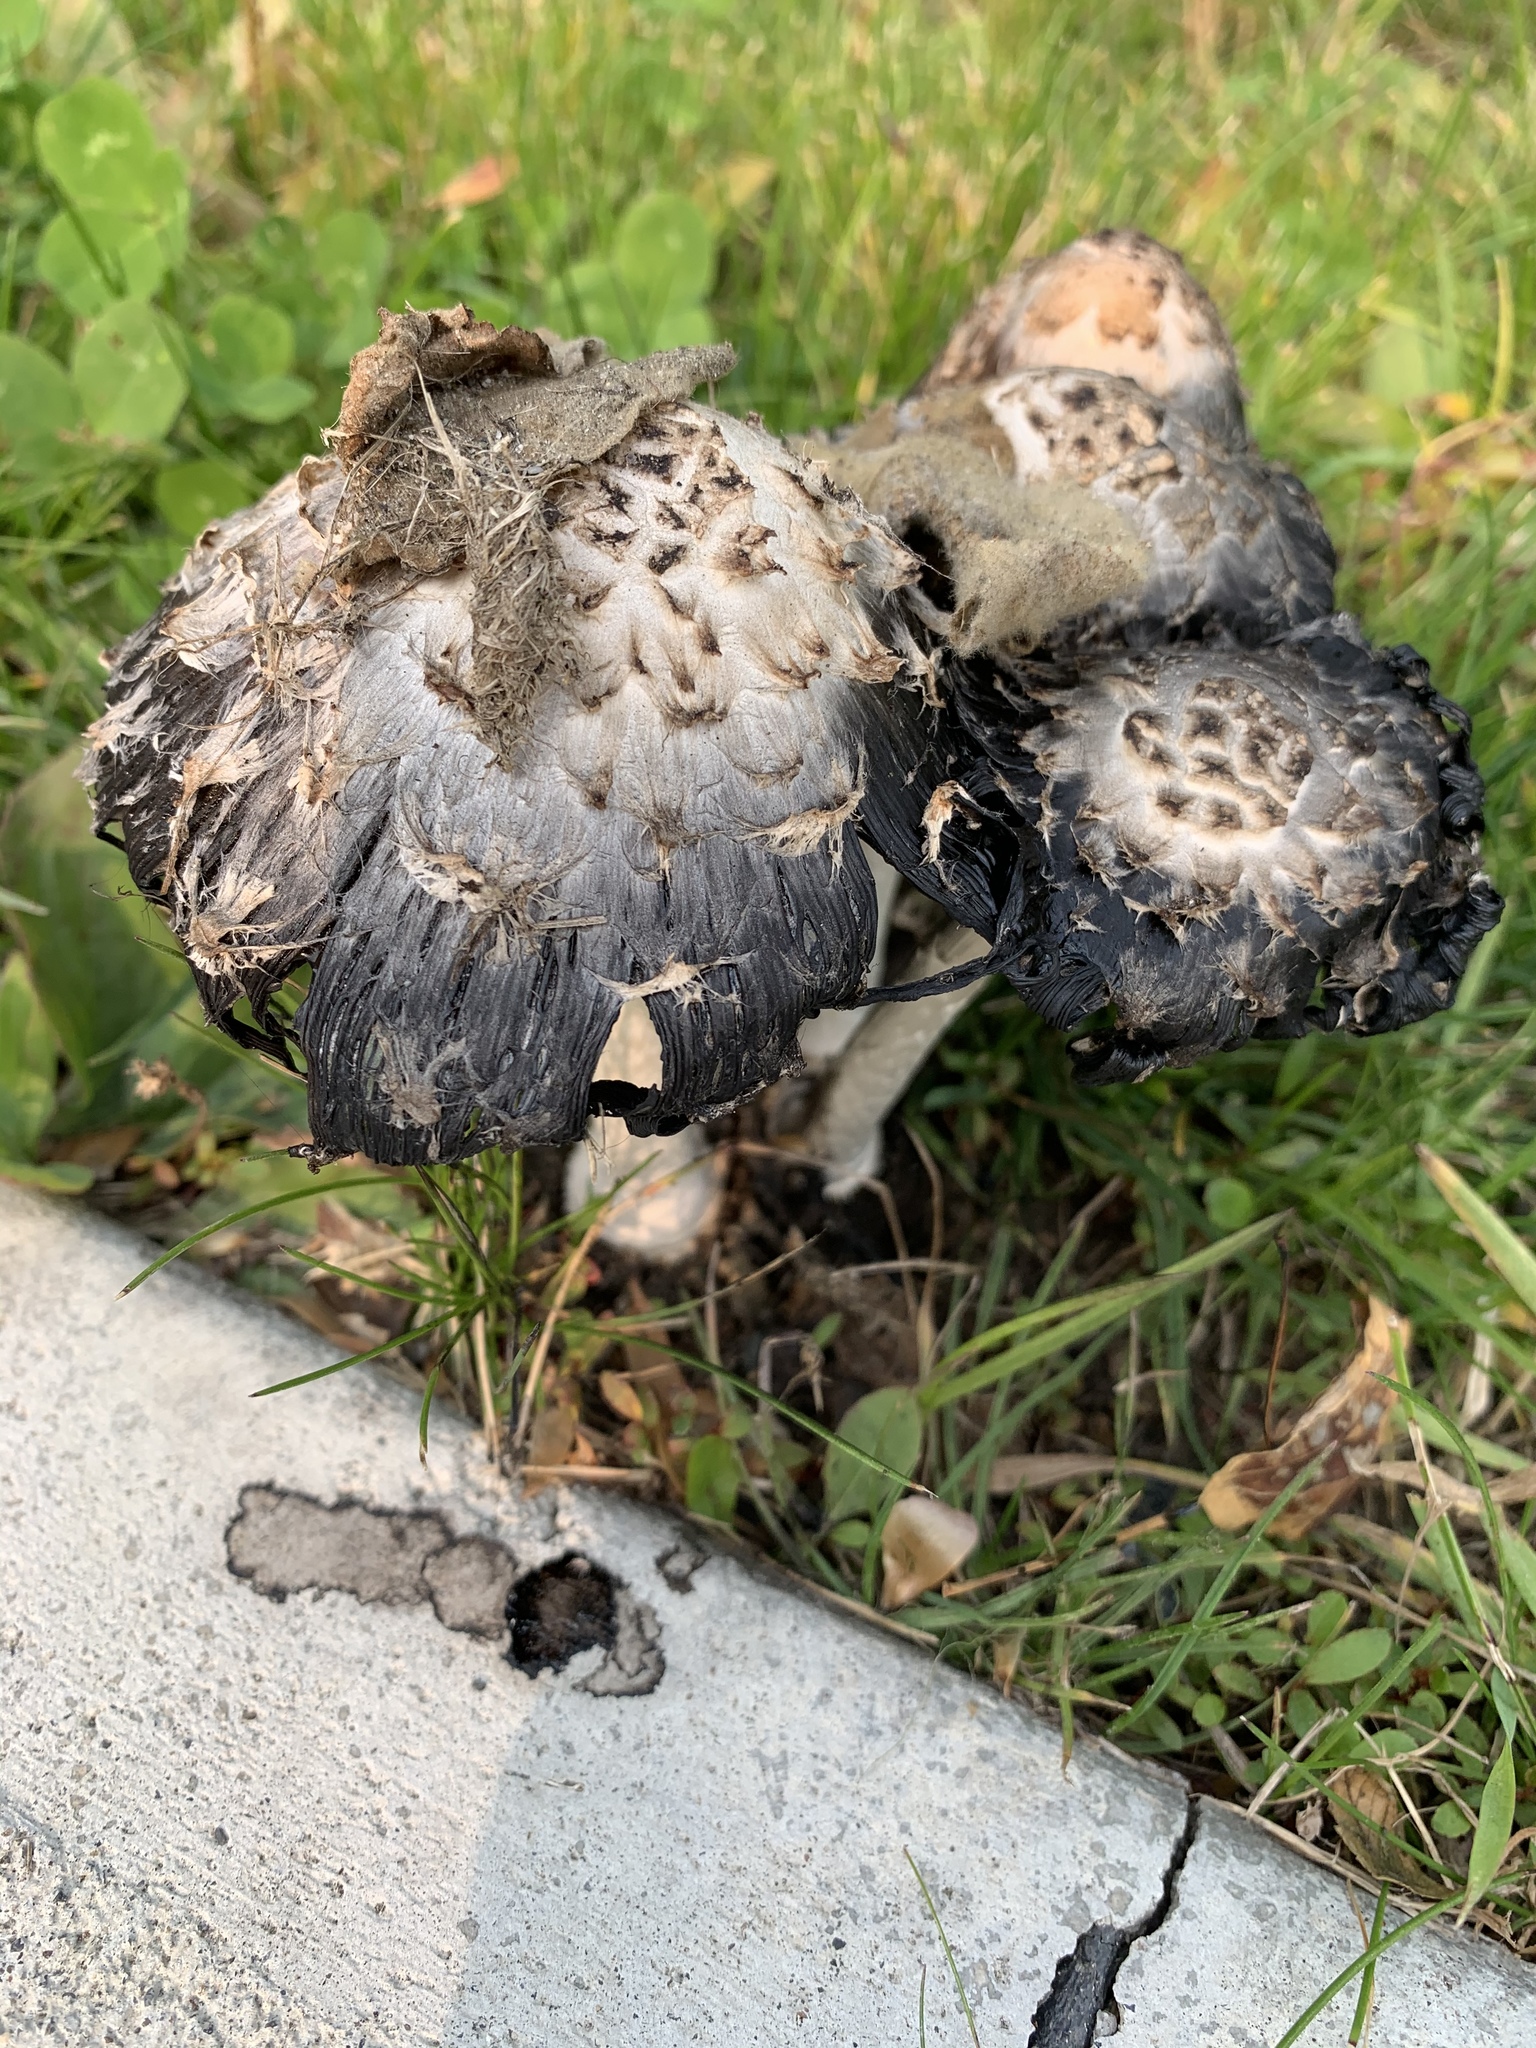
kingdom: Fungi
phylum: Basidiomycota
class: Agaricomycetes
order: Agaricales
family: Agaricaceae
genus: Coprinus
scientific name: Coprinus comatus
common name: Lawyer's wig
